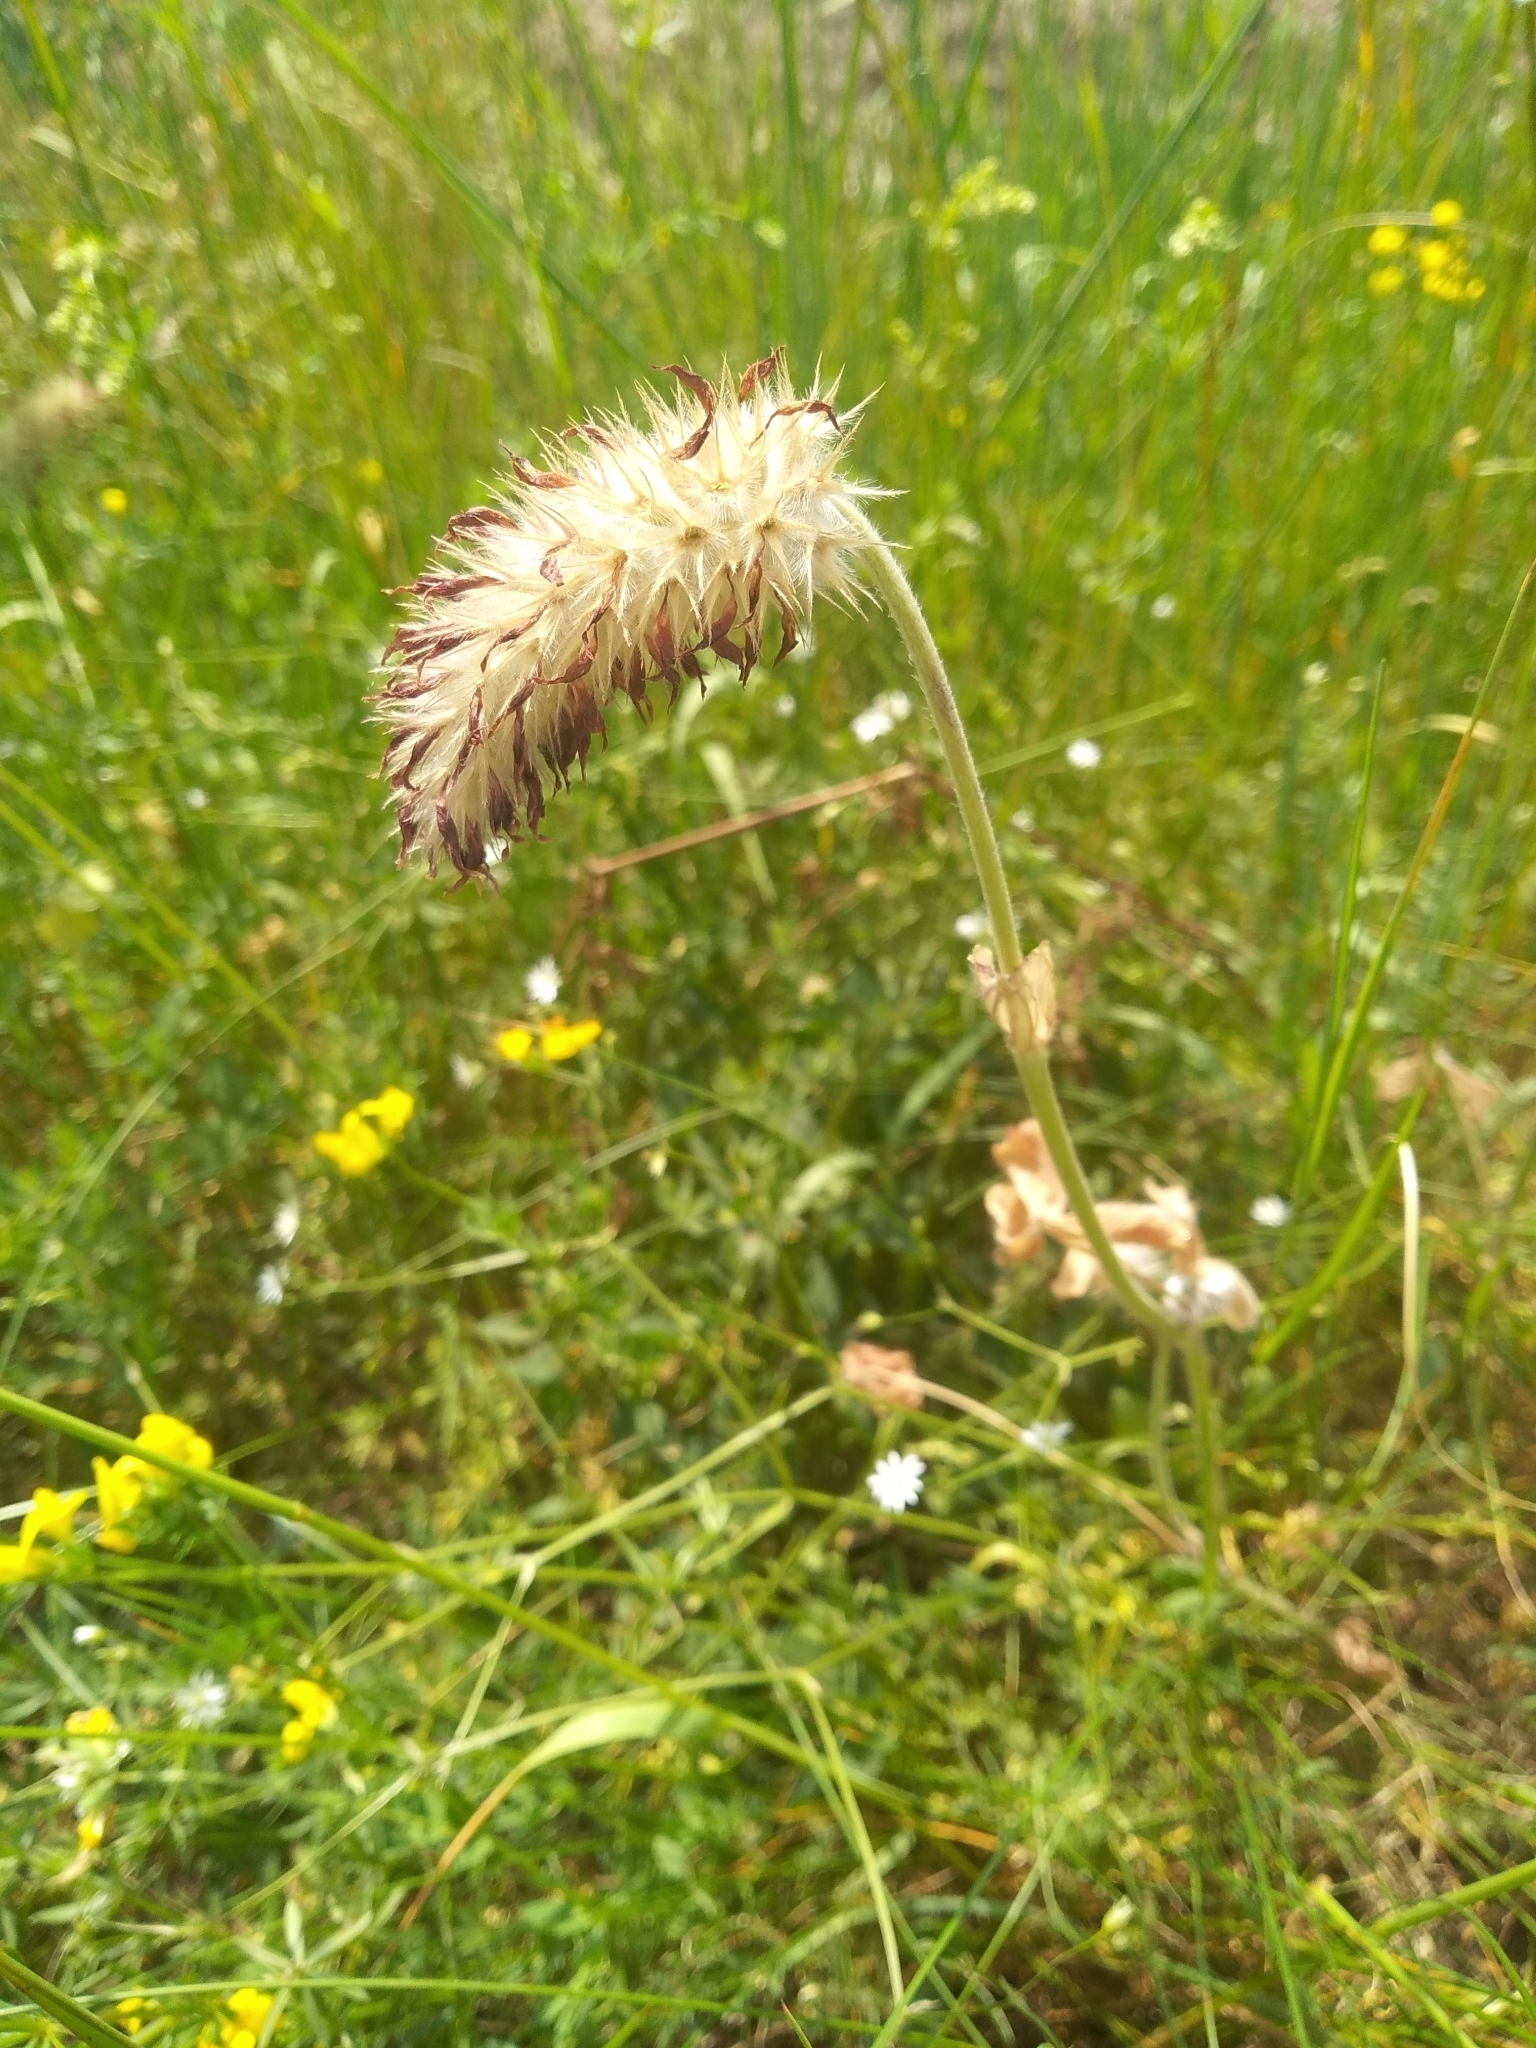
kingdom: Plantae
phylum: Tracheophyta
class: Magnoliopsida
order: Fabales
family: Fabaceae
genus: Trifolium
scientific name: Trifolium incarnatum
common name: Crimson clover
